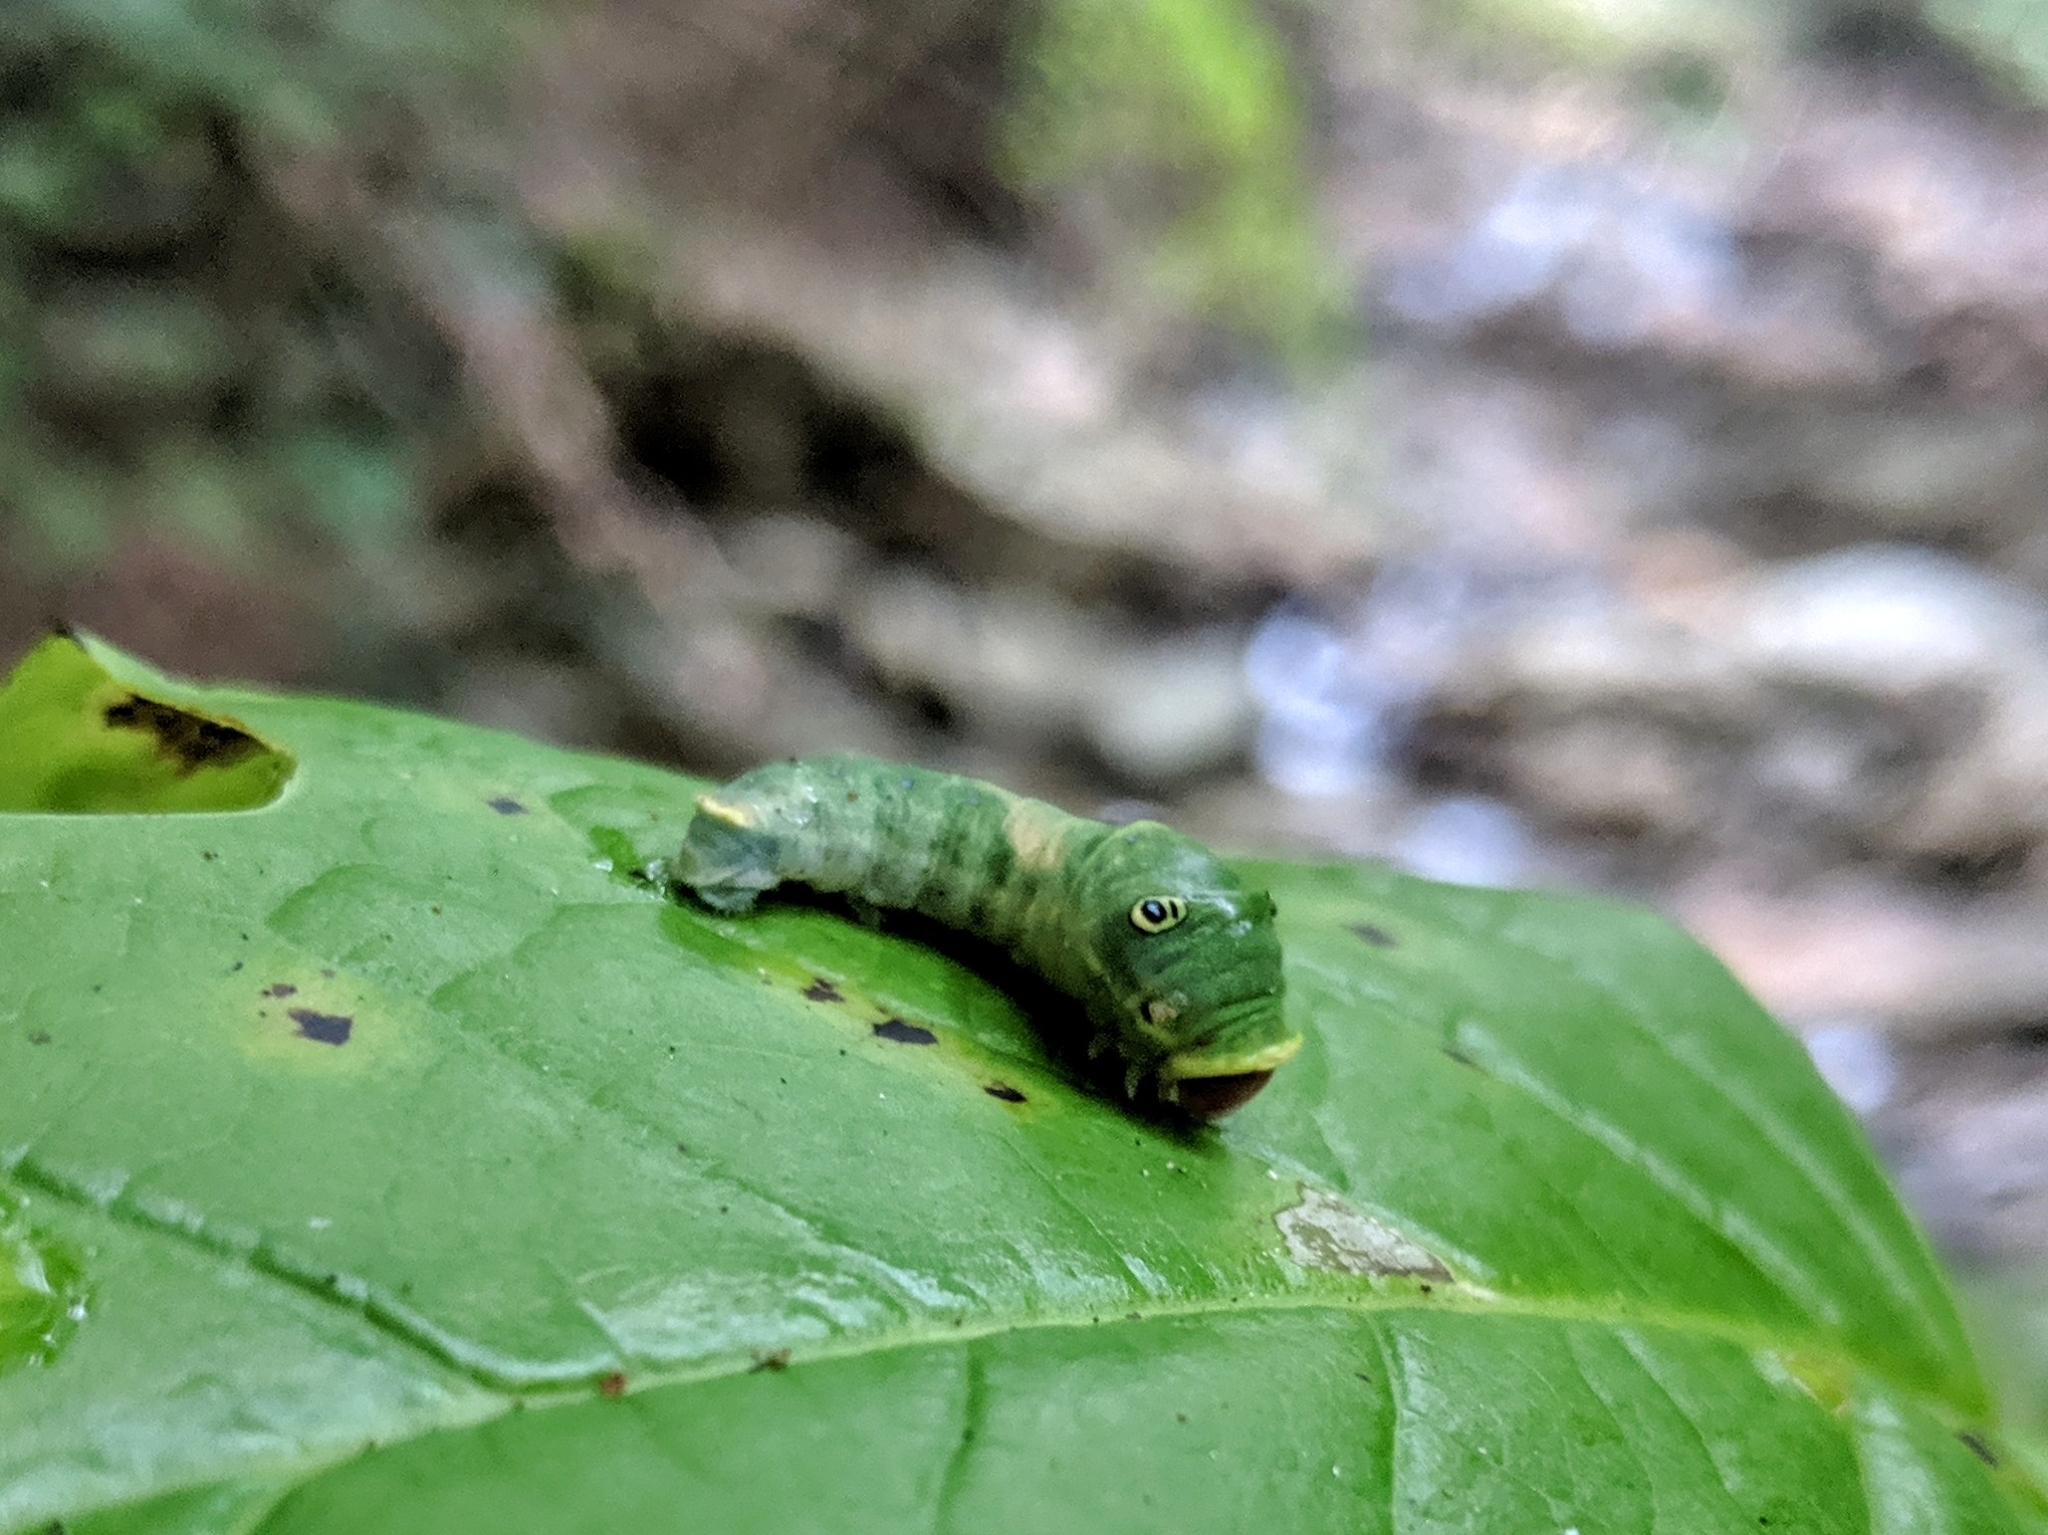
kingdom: Animalia
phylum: Arthropoda
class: Insecta
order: Lepidoptera
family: Papilionidae
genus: Papilio
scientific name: Papilio glaucus
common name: Tiger swallowtail
